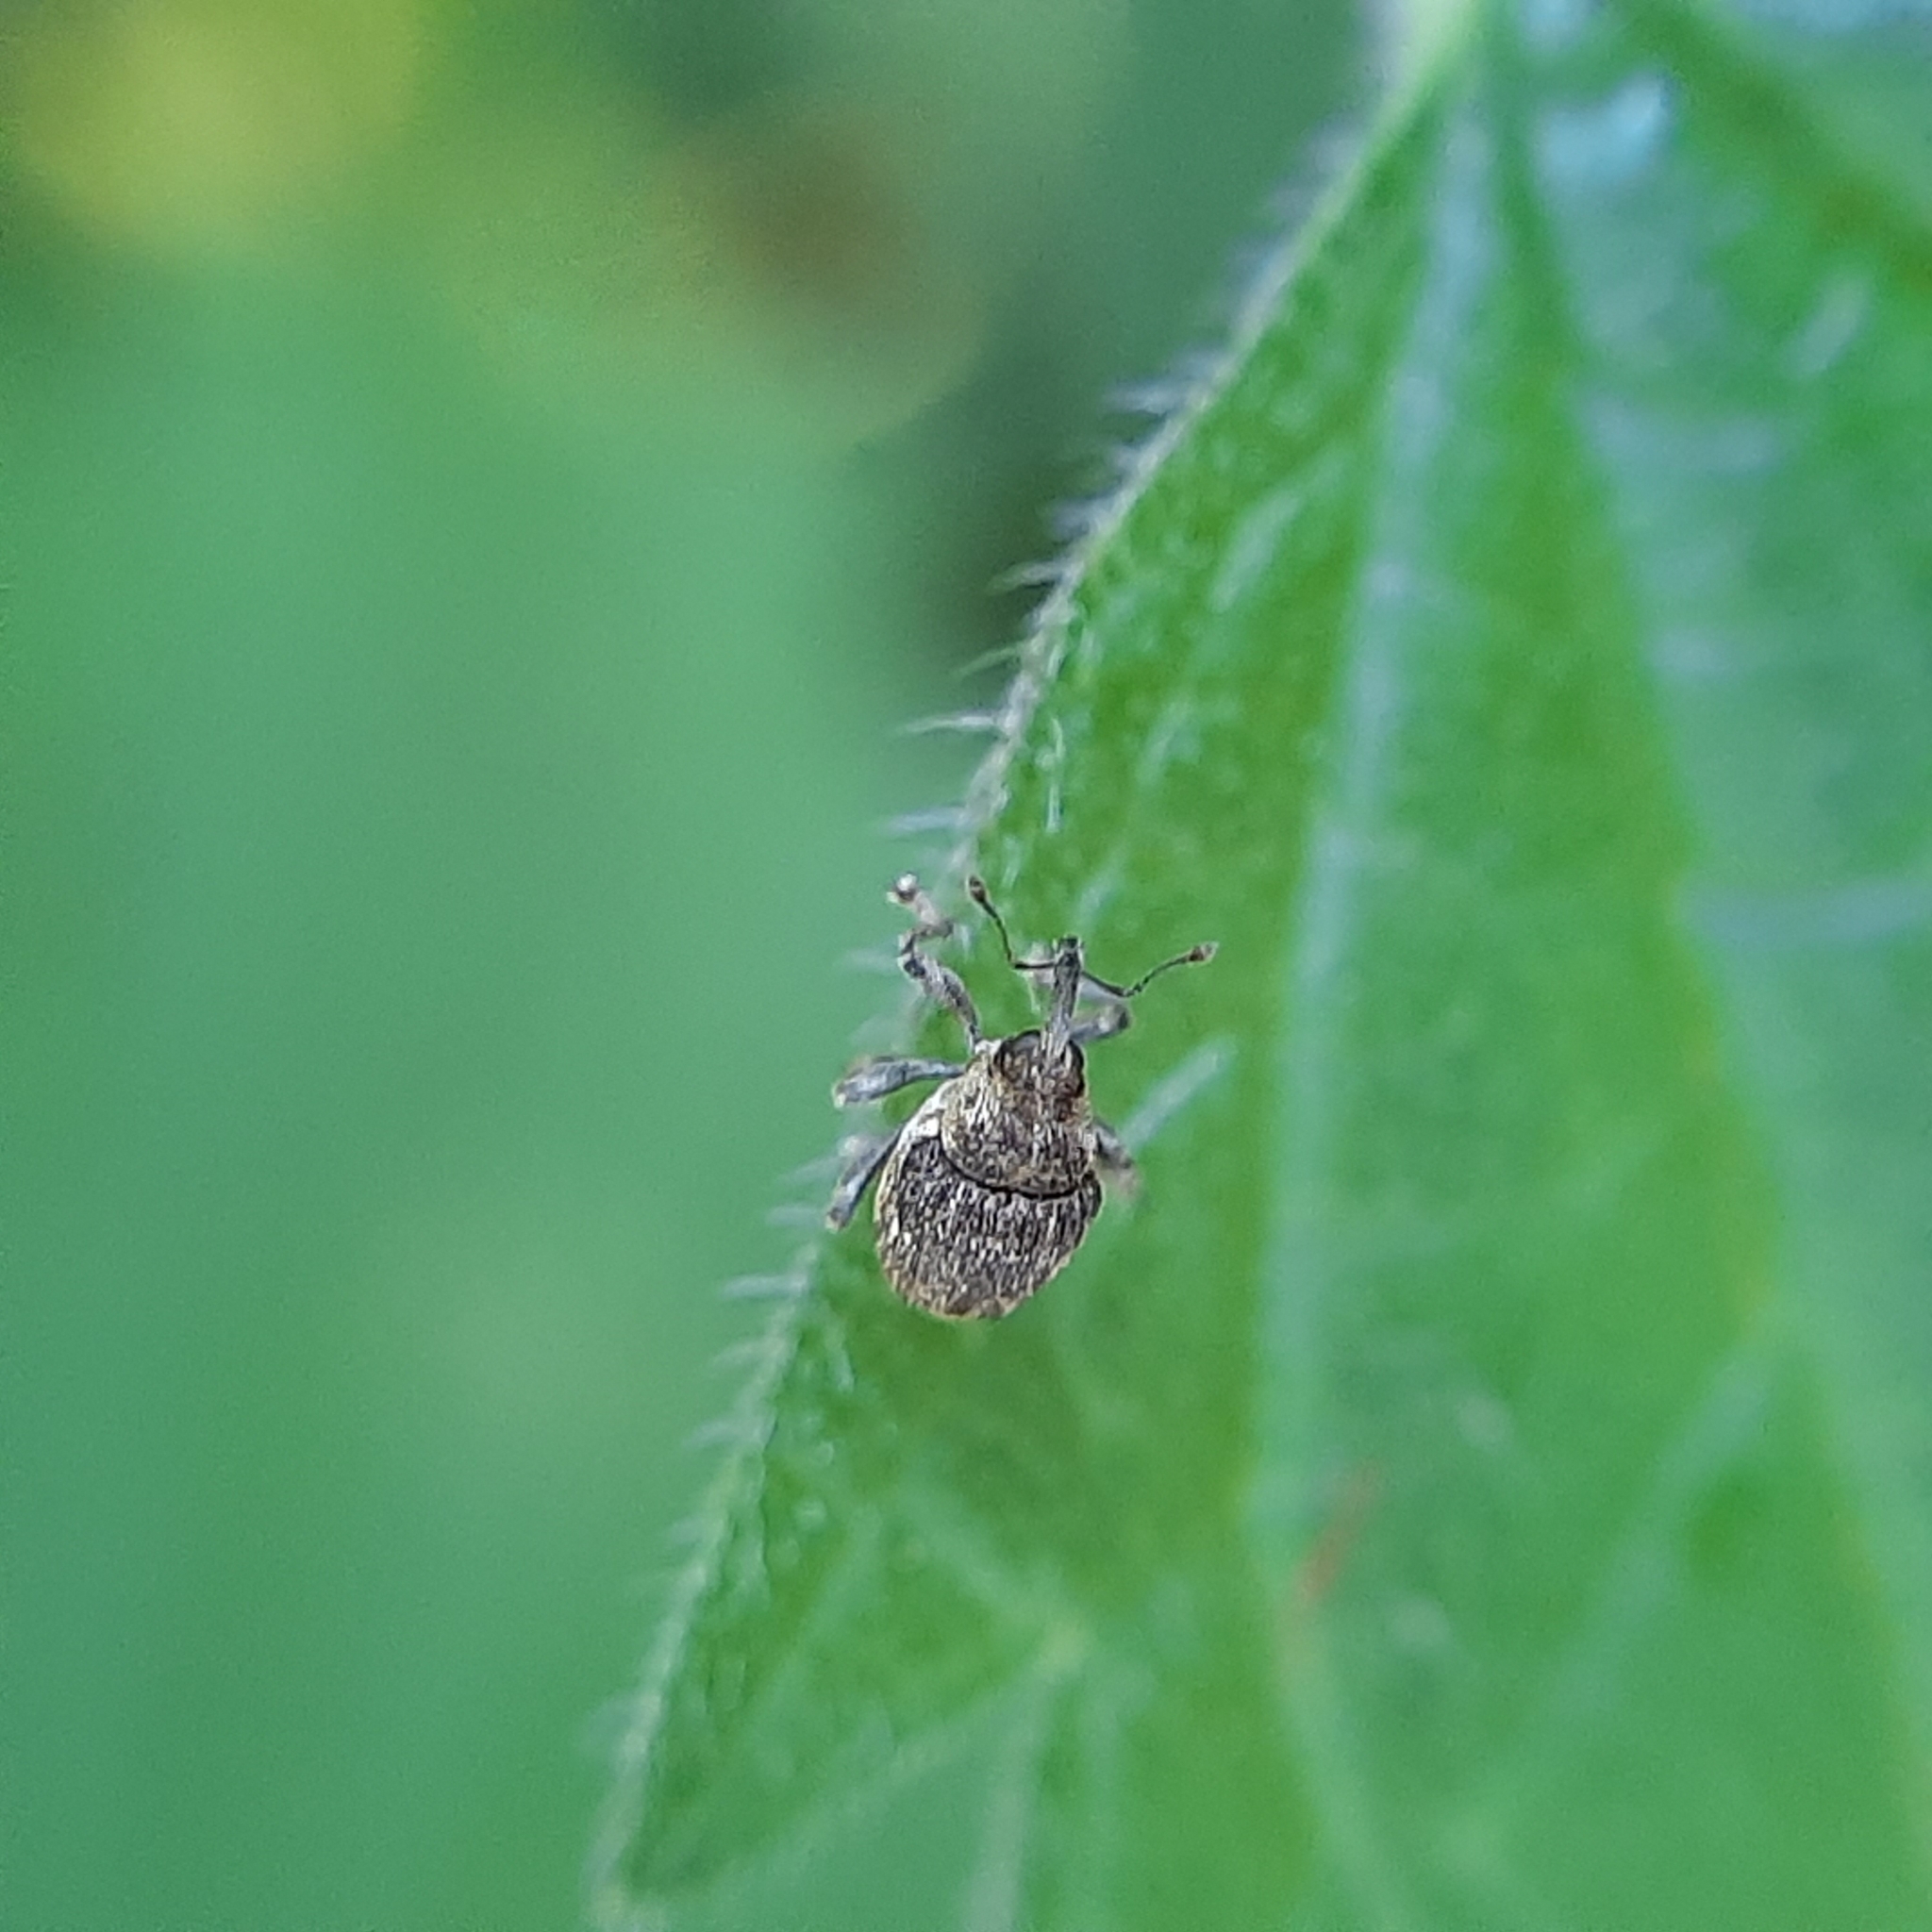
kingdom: Animalia
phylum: Arthropoda
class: Insecta
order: Coleoptera
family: Curculionidae
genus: Nedyus
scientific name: Nedyus quadrimaculatus
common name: Small nettle weevil
